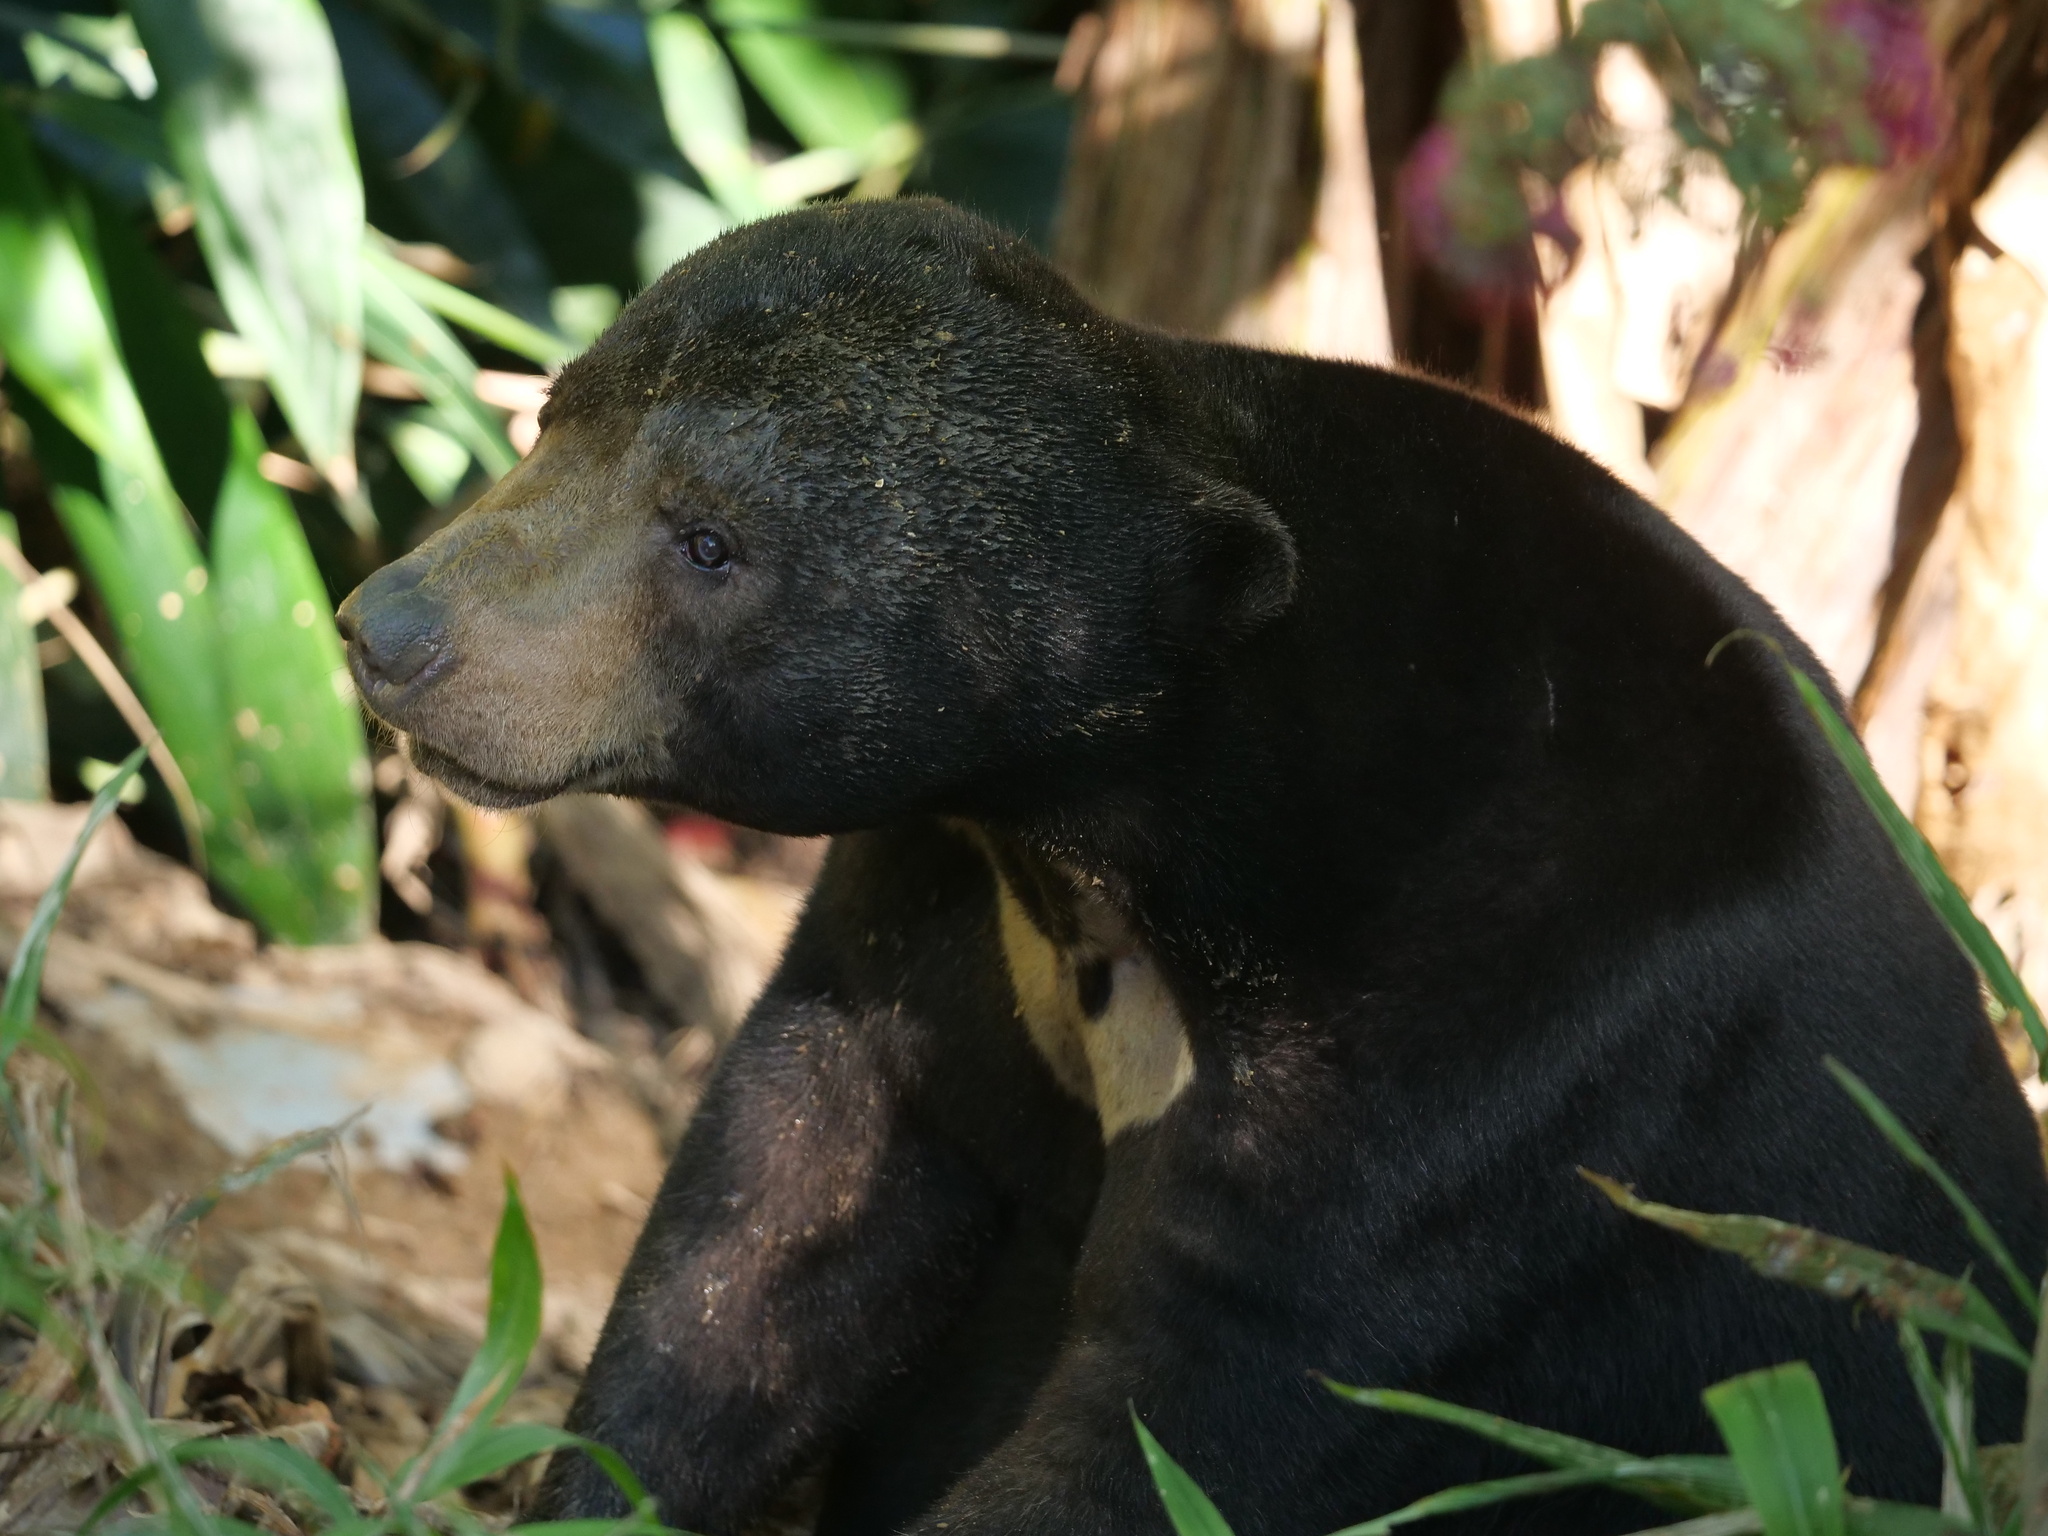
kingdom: Animalia
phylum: Chordata
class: Mammalia
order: Carnivora
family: Ursidae
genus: Helarctos
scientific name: Helarctos malayanus
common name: Sun bear
